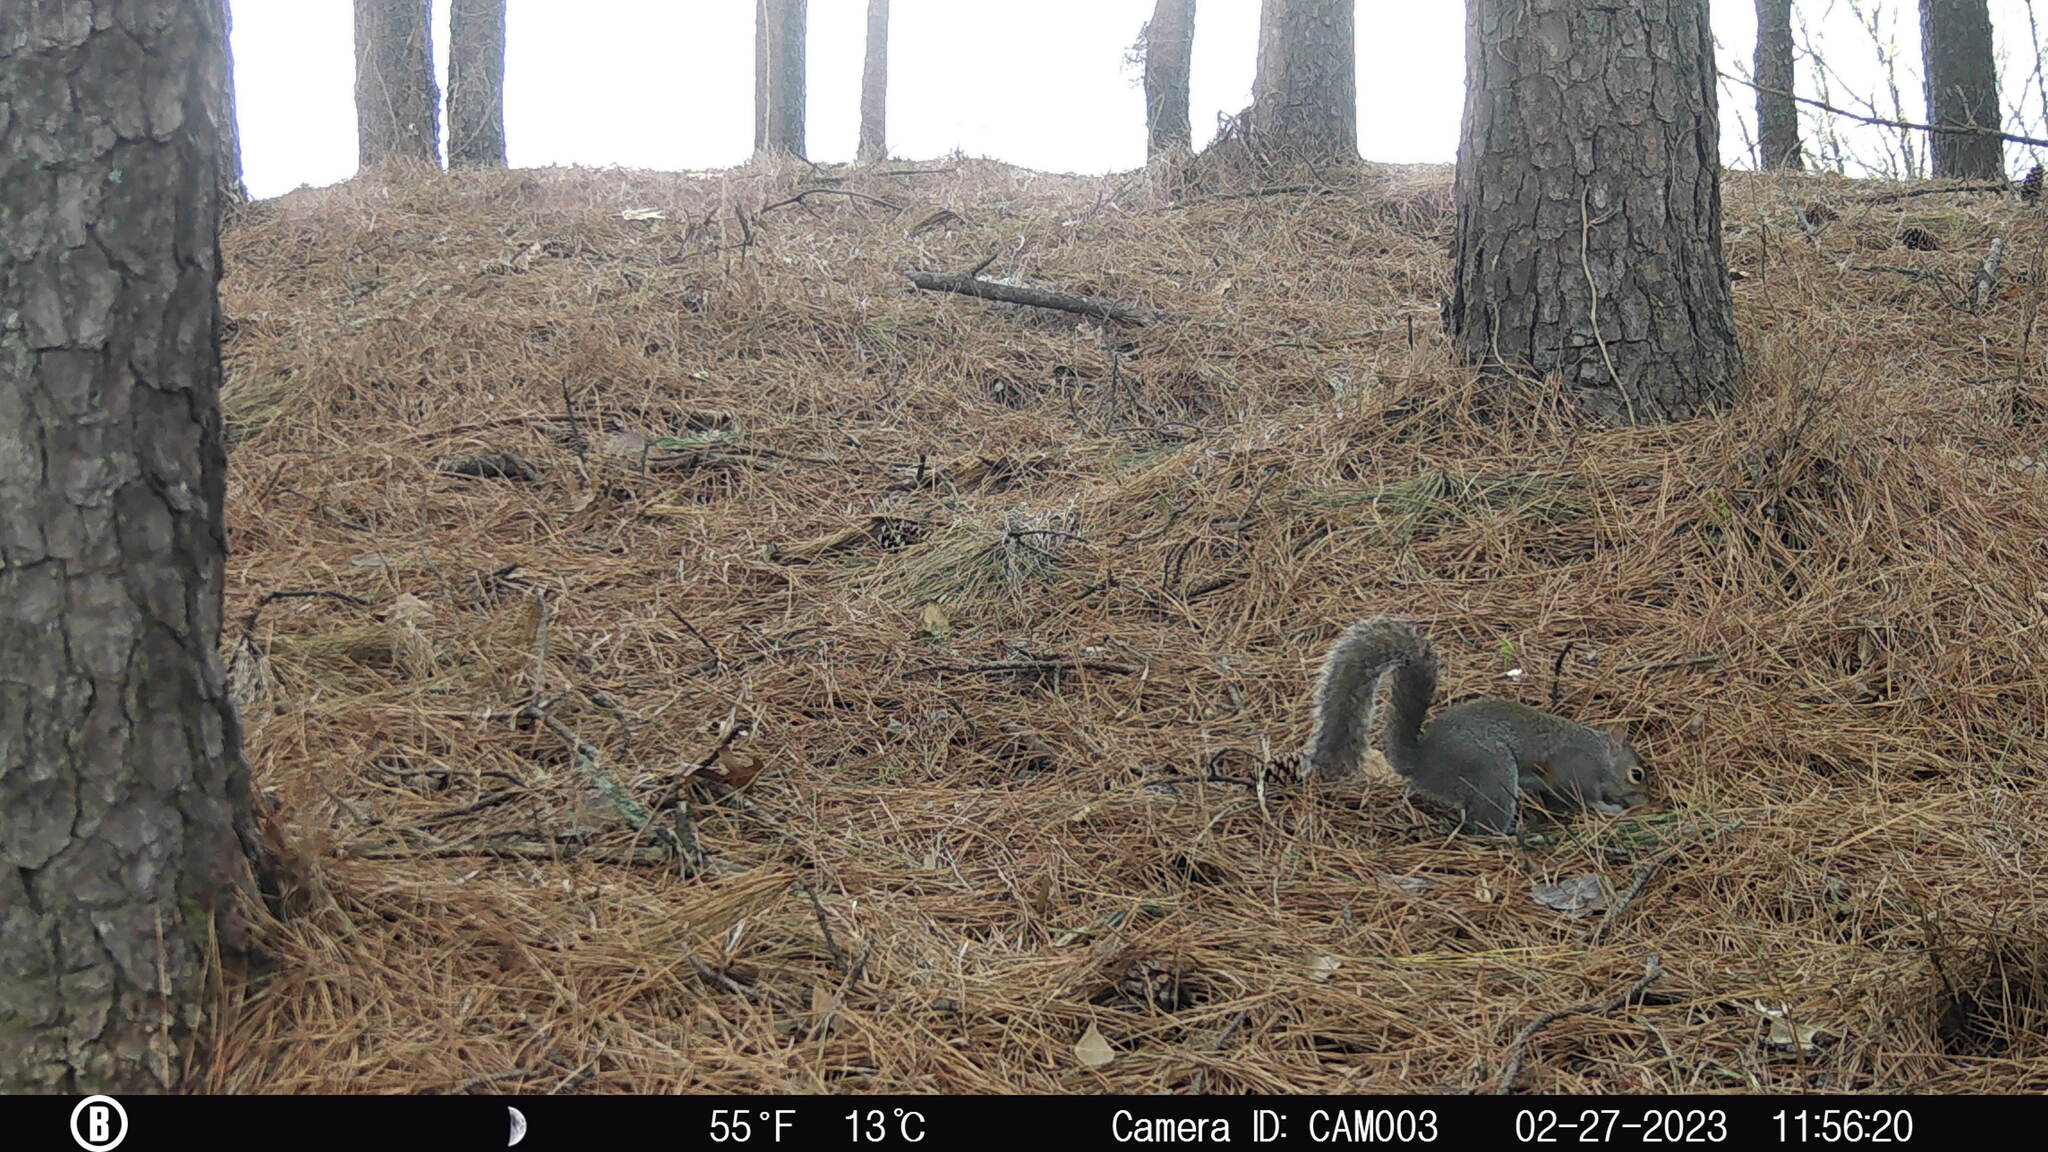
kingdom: Animalia
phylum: Chordata
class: Mammalia
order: Rodentia
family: Sciuridae
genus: Sciurus
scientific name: Sciurus carolinensis
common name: Eastern gray squirrel
